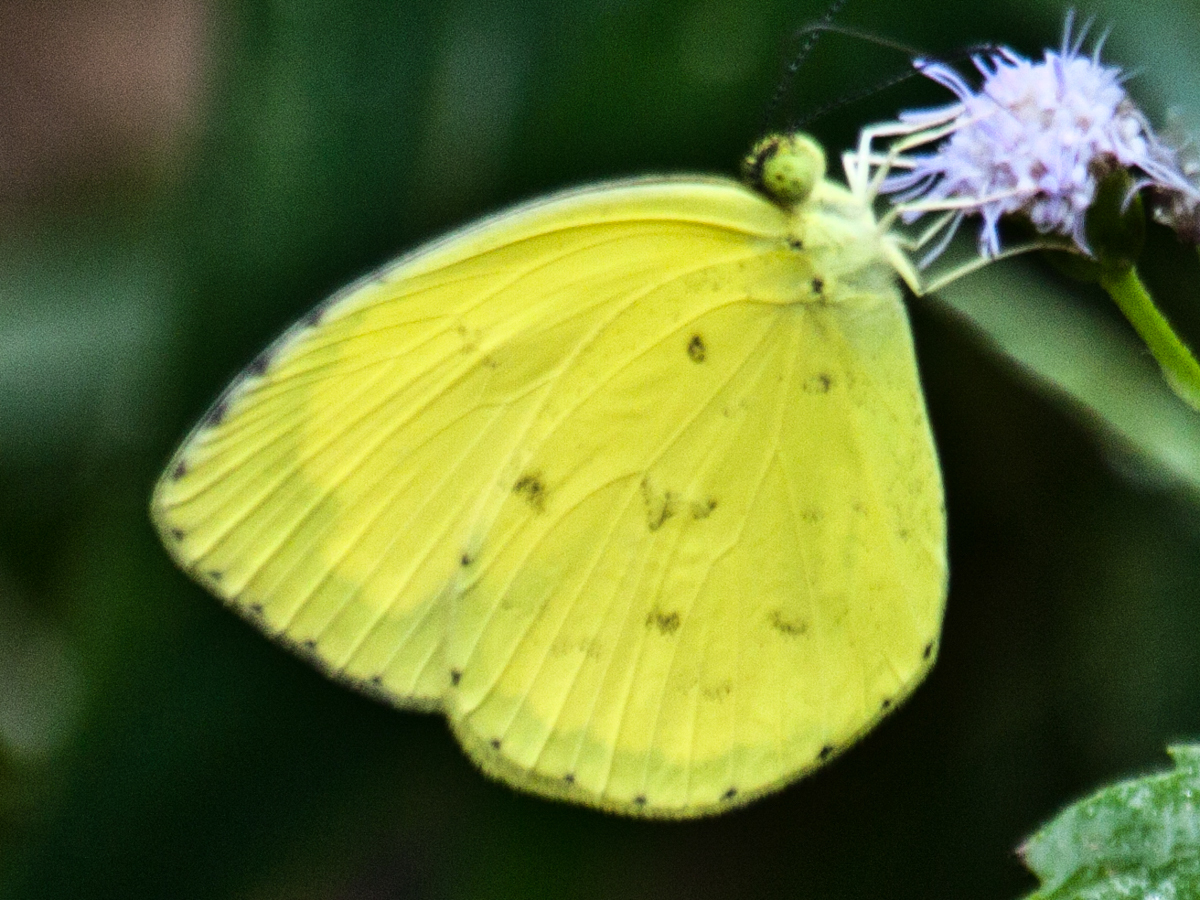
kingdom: Animalia
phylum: Arthropoda
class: Insecta
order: Lepidoptera
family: Pieridae
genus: Eurema
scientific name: Eurema hecabe
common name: Pale grass yellow
